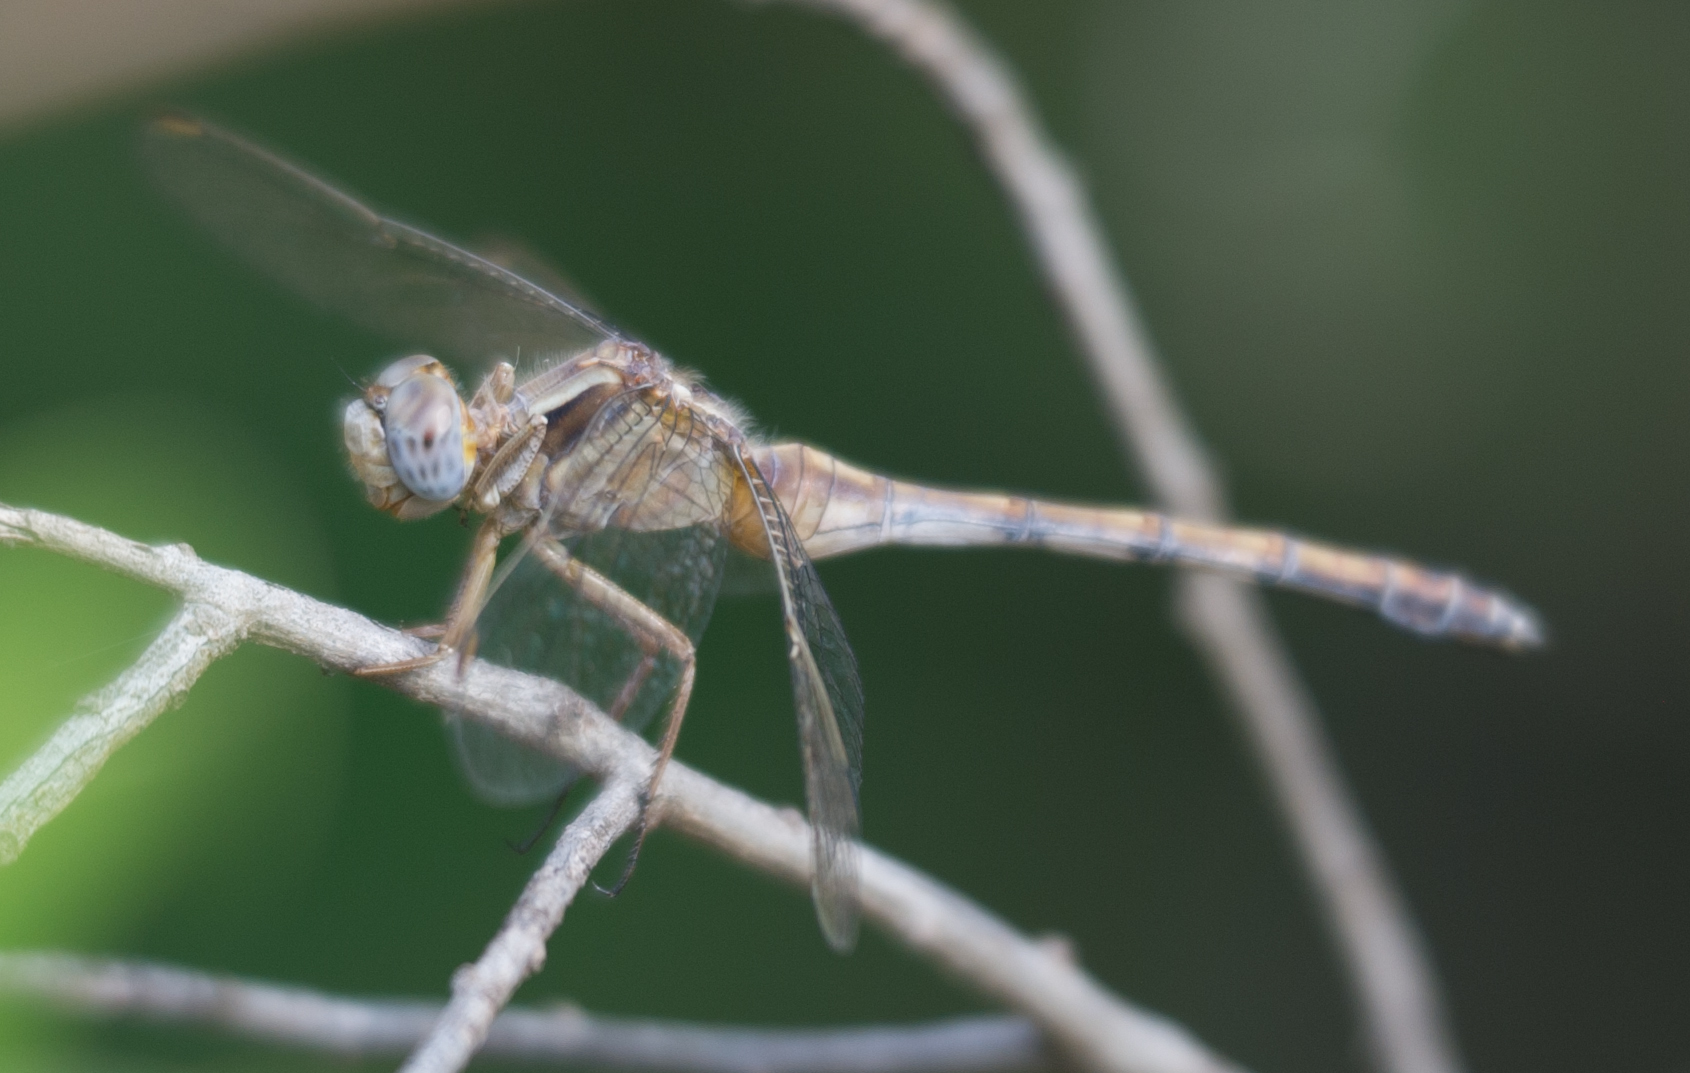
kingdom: Animalia
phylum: Arthropoda
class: Insecta
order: Odonata
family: Libellulidae
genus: Orthetrum
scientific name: Orthetrum chrysostigma
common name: Epaulet skimmer
